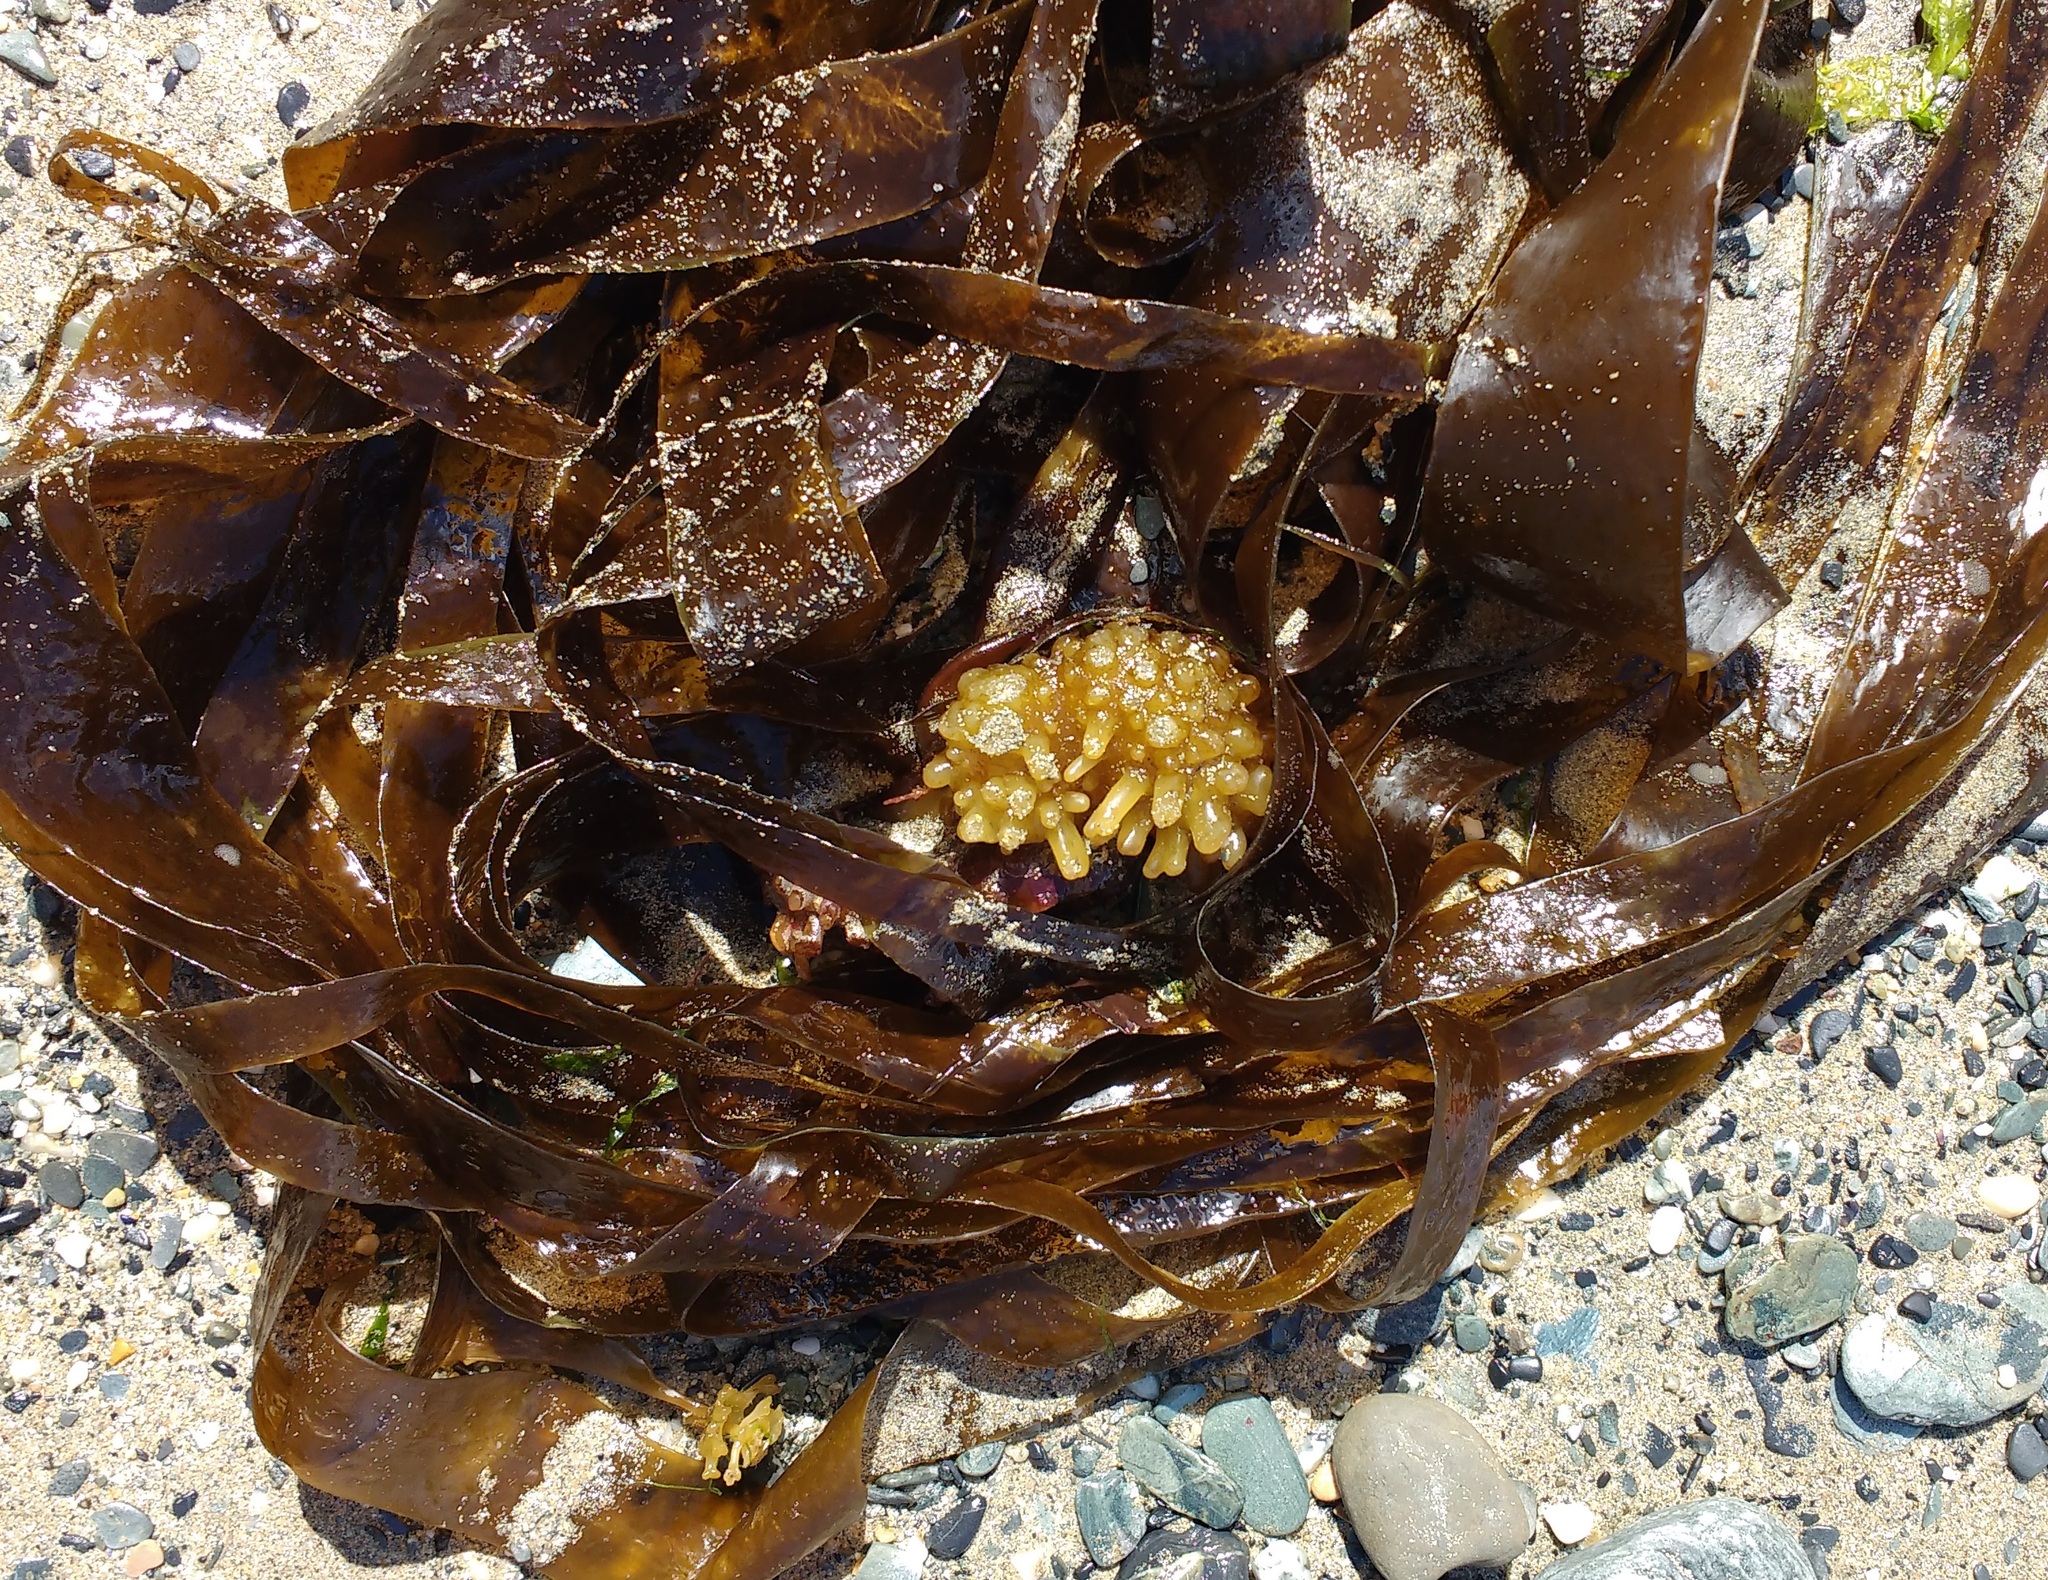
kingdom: Chromista
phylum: Ochrophyta
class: Phaeophyceae
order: Tilopteridales
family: Phyllariaceae
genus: Saccorhiza
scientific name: Saccorhiza polyschides
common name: Furbelows
